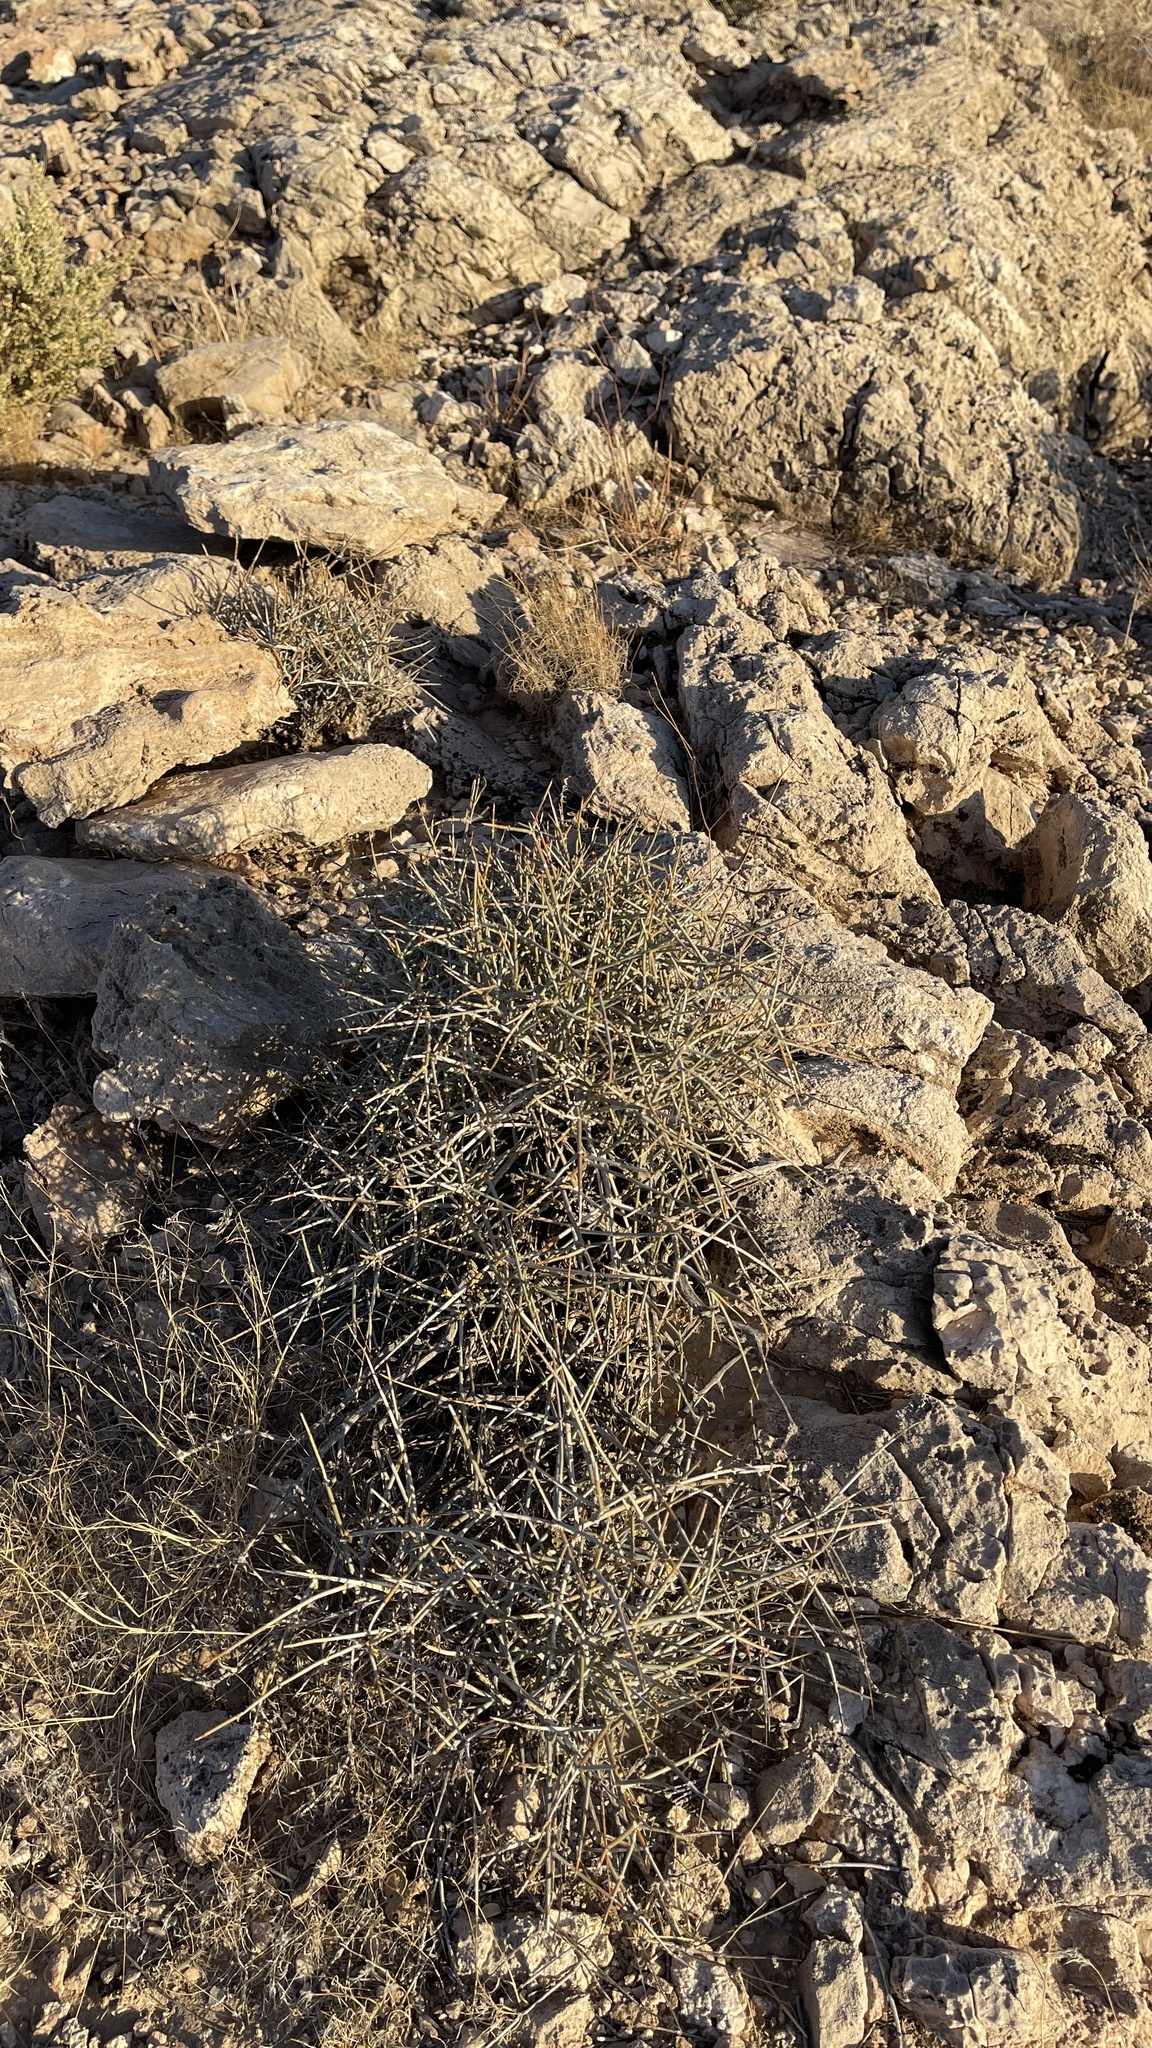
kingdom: Plantae
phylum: Tracheophyta
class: Gnetopsida
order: Ephedrales
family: Ephedraceae
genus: Ephedra
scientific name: Ephedra nevadensis
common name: Gray ephedra
